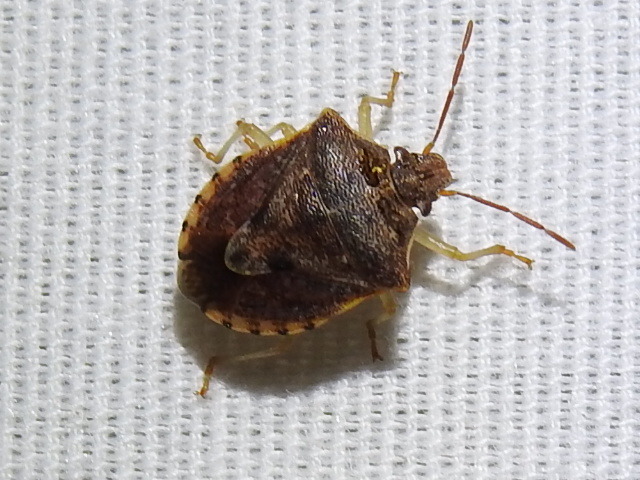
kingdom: Animalia
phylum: Arthropoda
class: Insecta
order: Hemiptera
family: Pentatomidae
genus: Dendrocoris
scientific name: Dendrocoris humeralis
